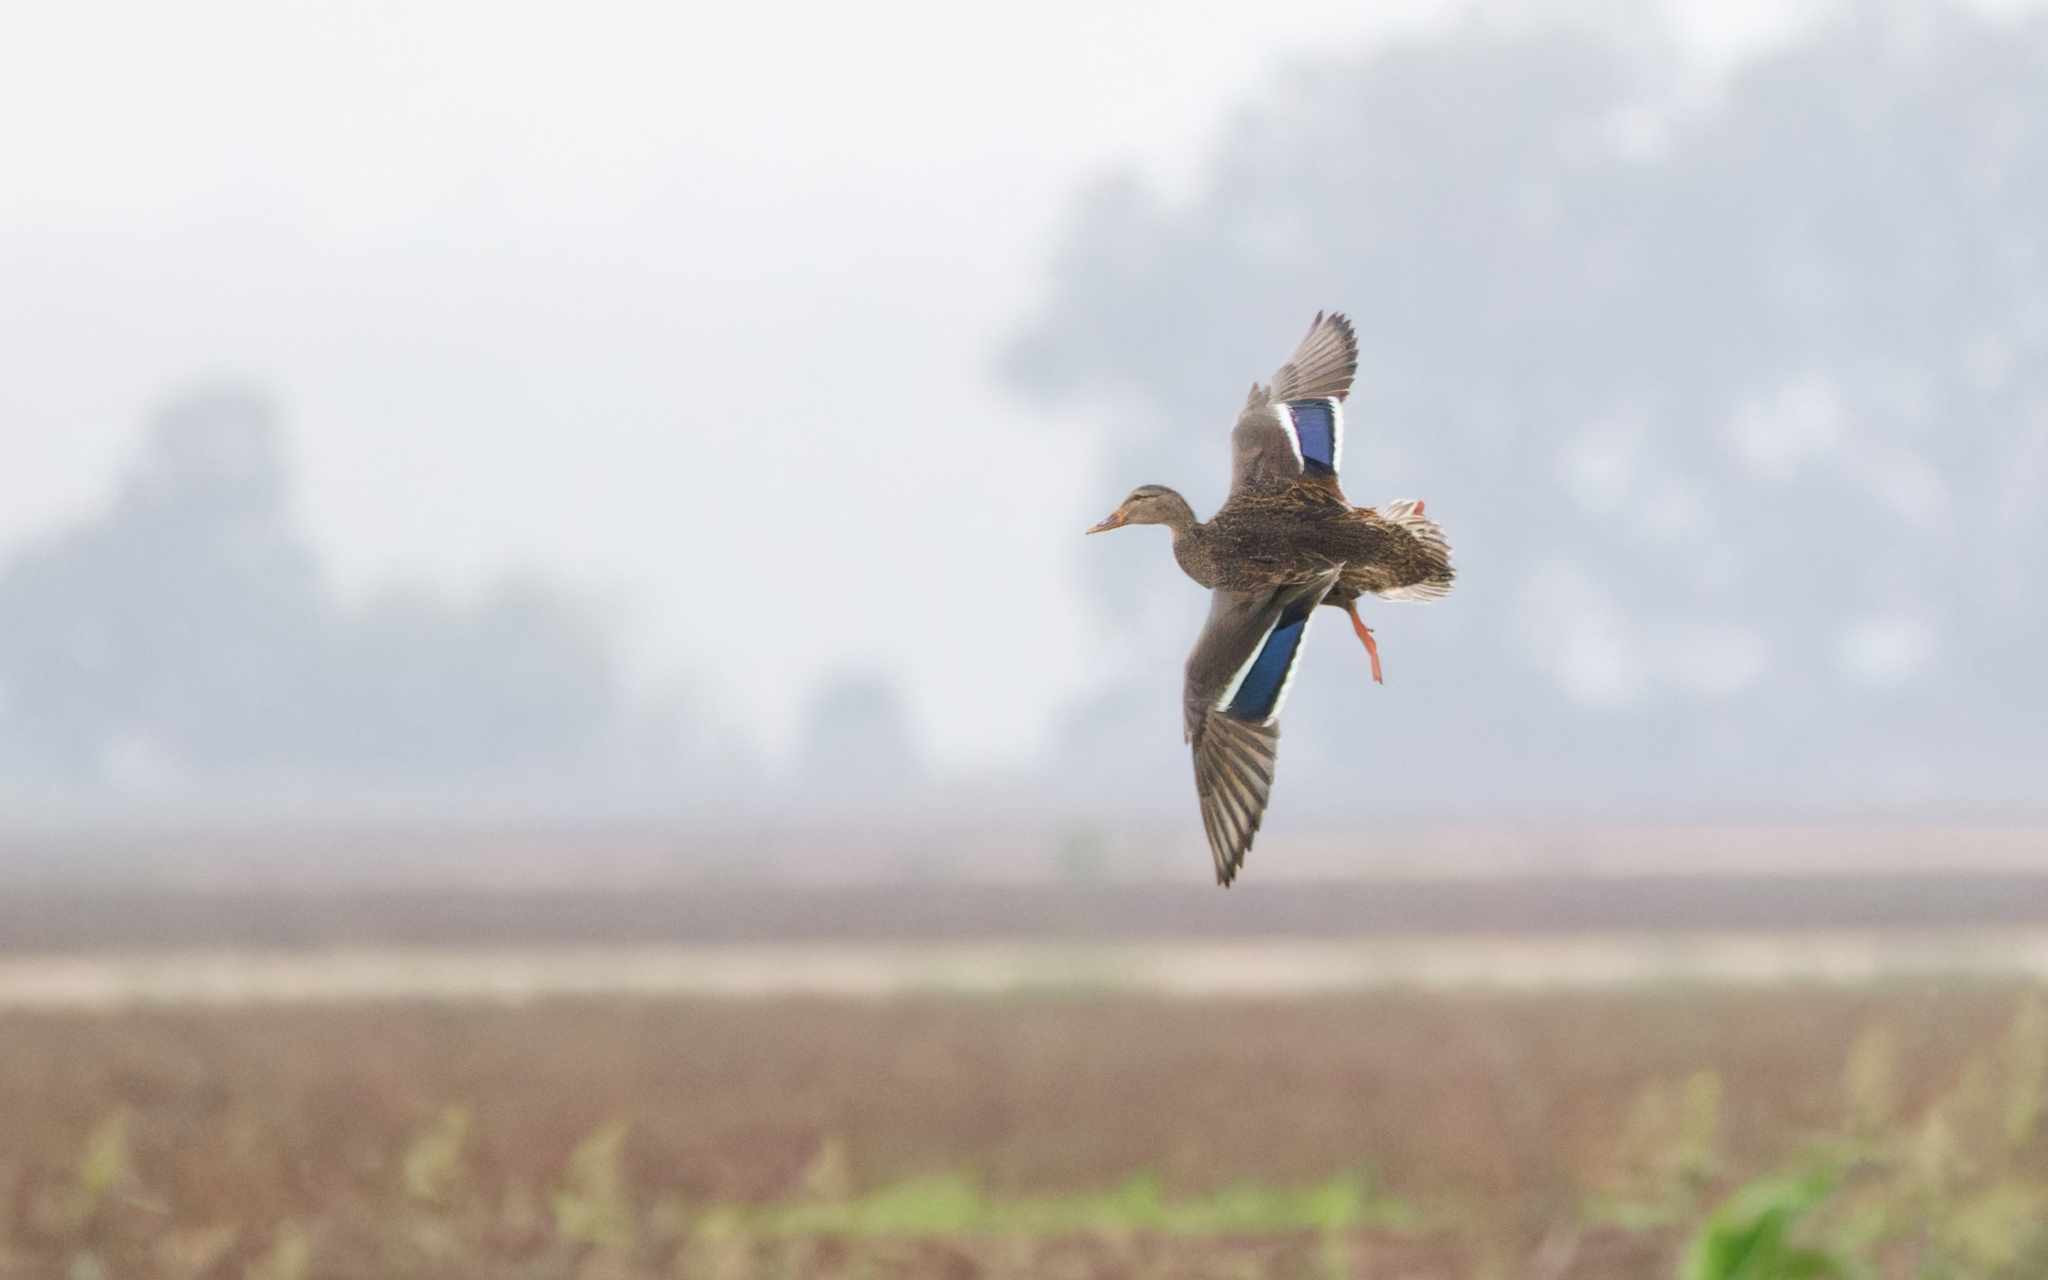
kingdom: Animalia
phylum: Chordata
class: Aves
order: Anseriformes
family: Anatidae
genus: Anas
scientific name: Anas platyrhynchos
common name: Mallard
